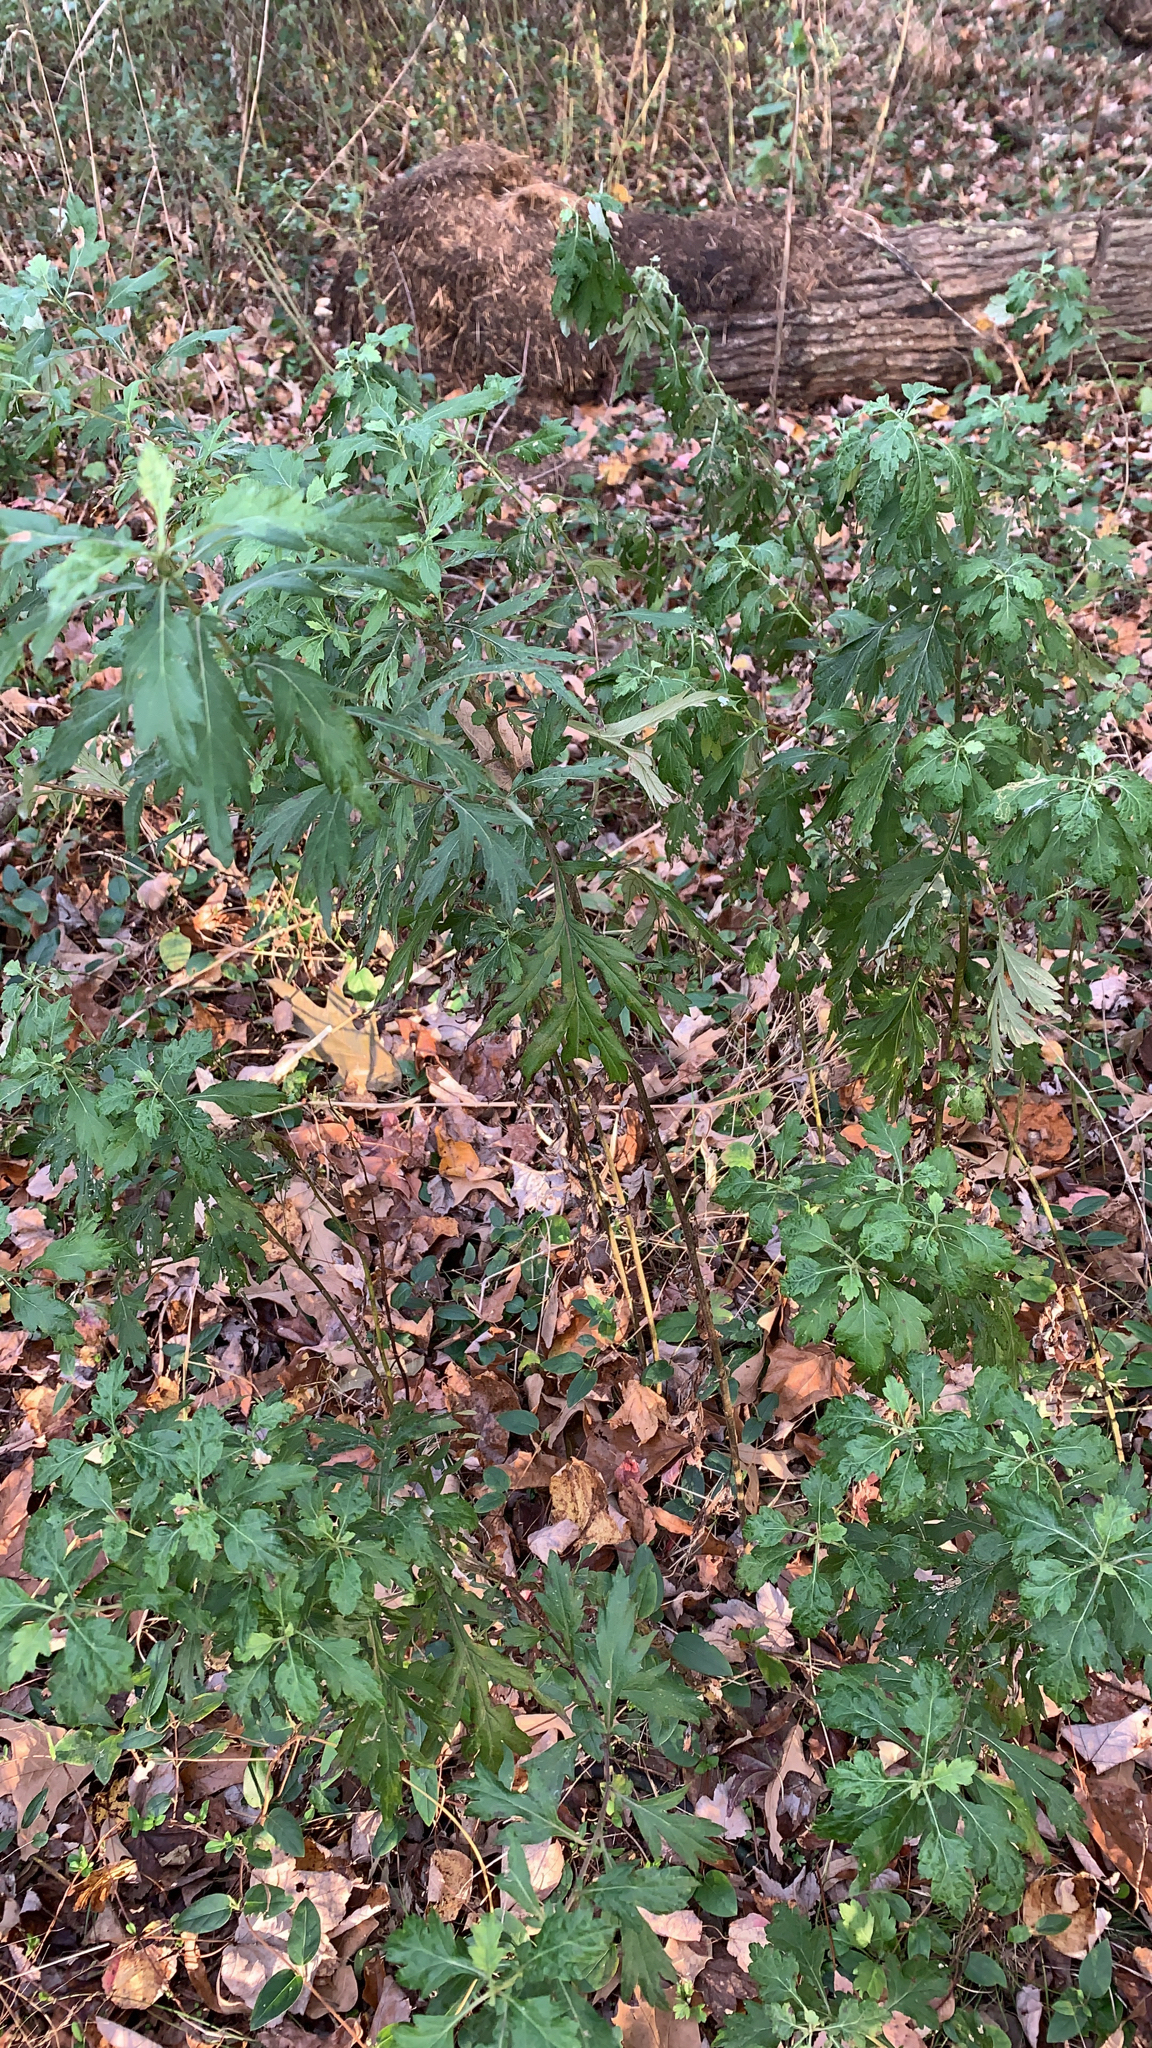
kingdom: Plantae
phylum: Tracheophyta
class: Magnoliopsida
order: Asterales
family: Asteraceae
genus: Artemisia
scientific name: Artemisia vulgaris
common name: Mugwort
